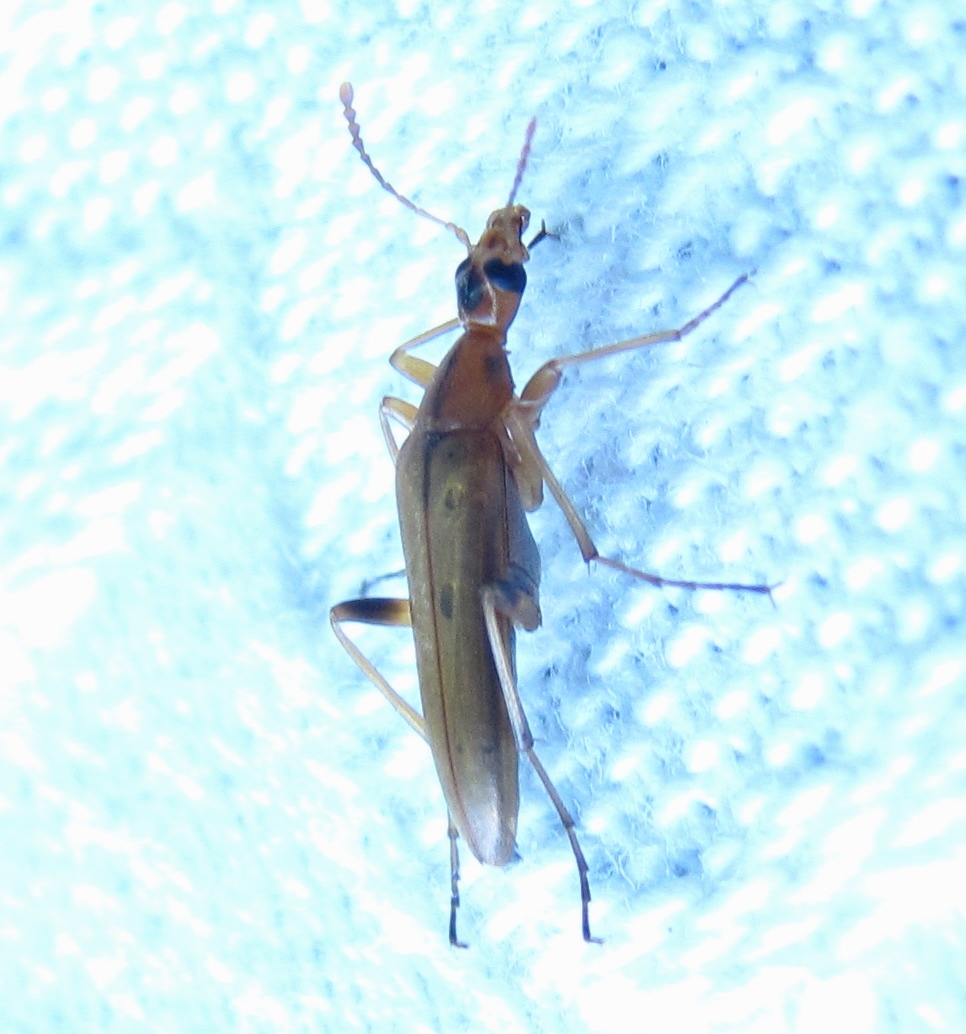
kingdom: Animalia
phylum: Arthropoda
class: Insecta
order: Coleoptera
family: Stenotrachelidae
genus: Cephaloon
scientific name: Cephaloon lepturides
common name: False leptura beetle
